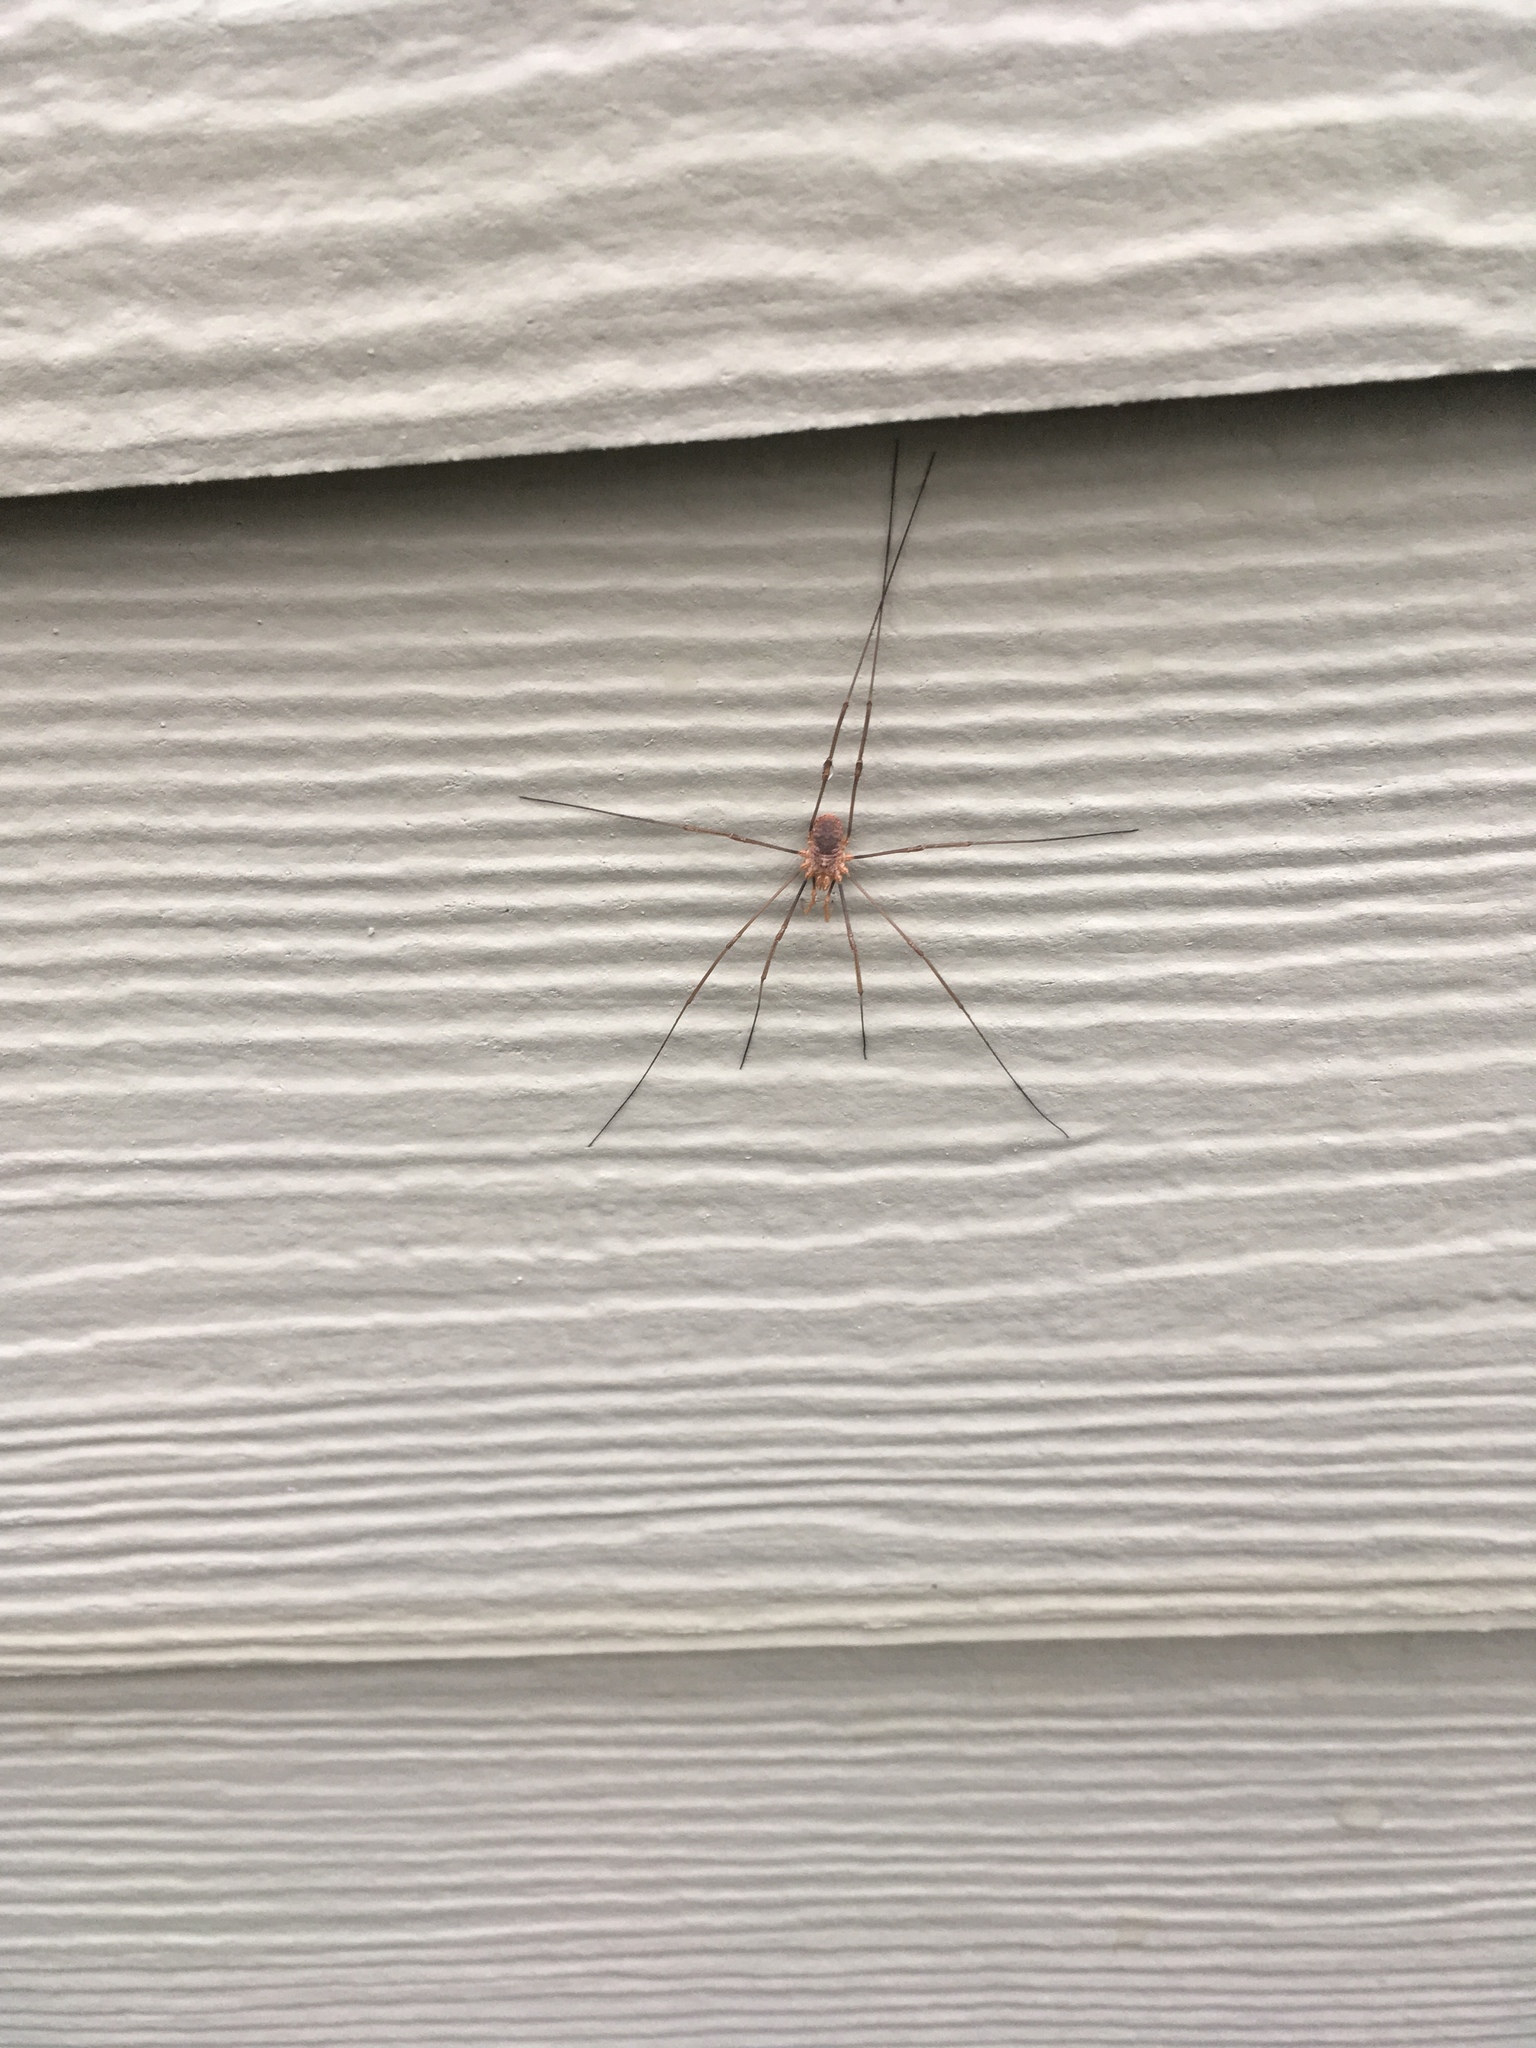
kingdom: Animalia
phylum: Arthropoda
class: Arachnida
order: Opiliones
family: Phalangiidae
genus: Phalangium
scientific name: Phalangium opilio
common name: Daddy longleg
